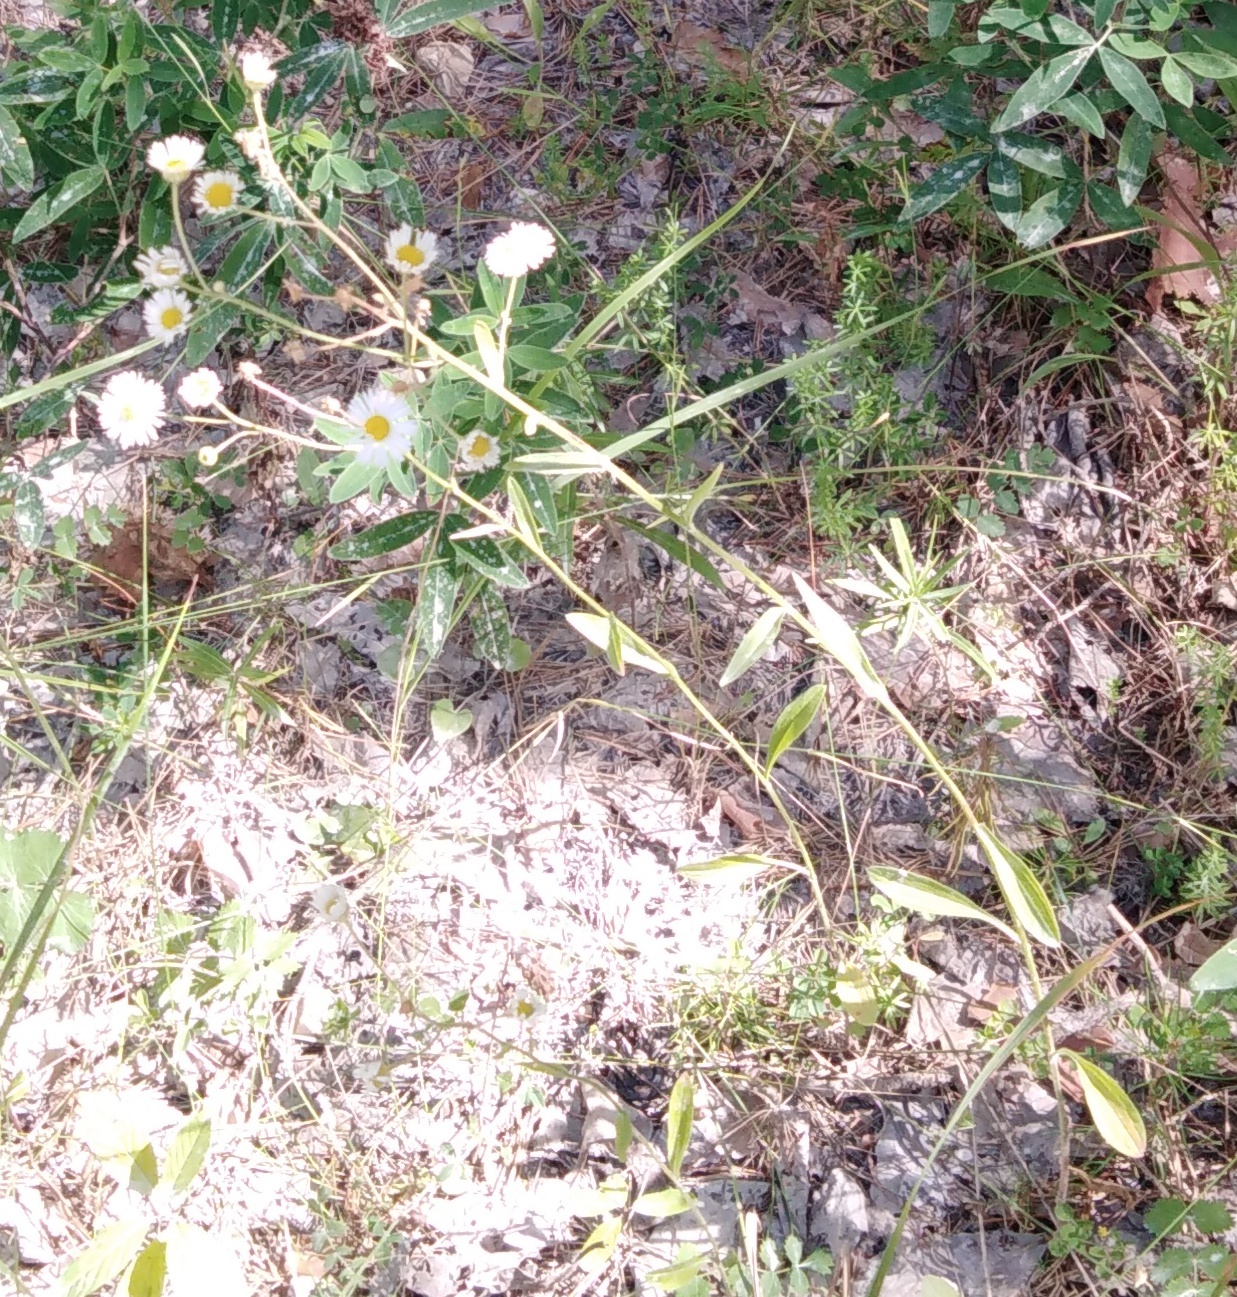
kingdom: Plantae
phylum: Tracheophyta
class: Magnoliopsida
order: Asterales
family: Asteraceae
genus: Erigeron
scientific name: Erigeron annuus
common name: Tall fleabane
